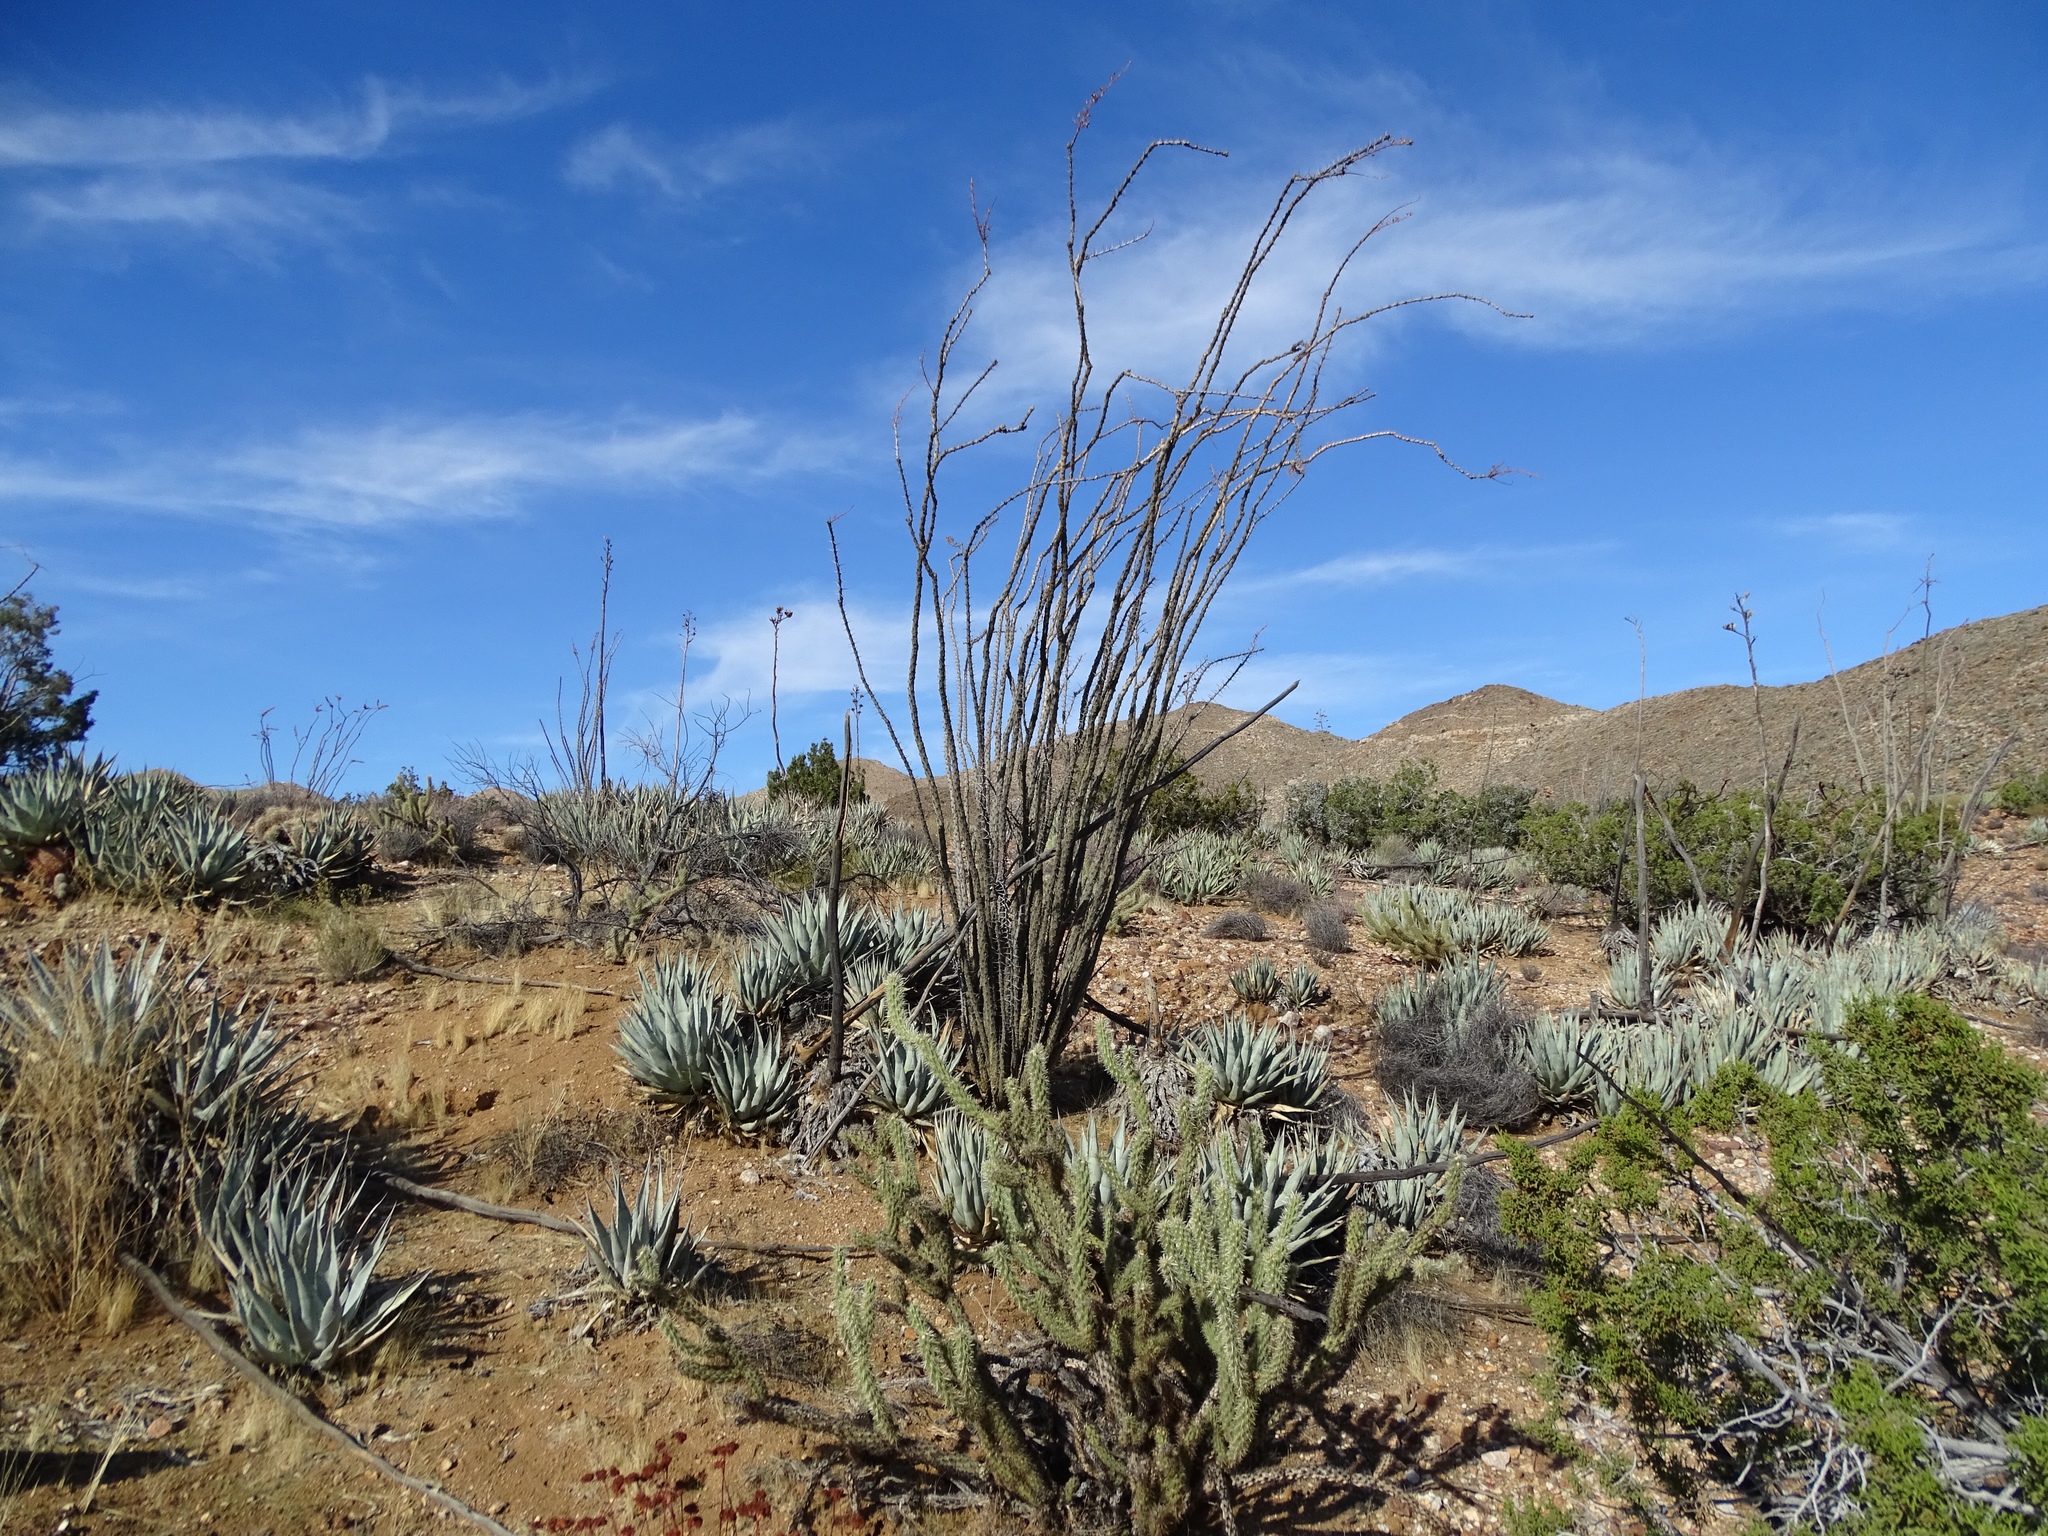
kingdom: Plantae
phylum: Tracheophyta
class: Magnoliopsida
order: Ericales
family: Fouquieriaceae
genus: Fouquieria
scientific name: Fouquieria splendens
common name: Vine-cactus
